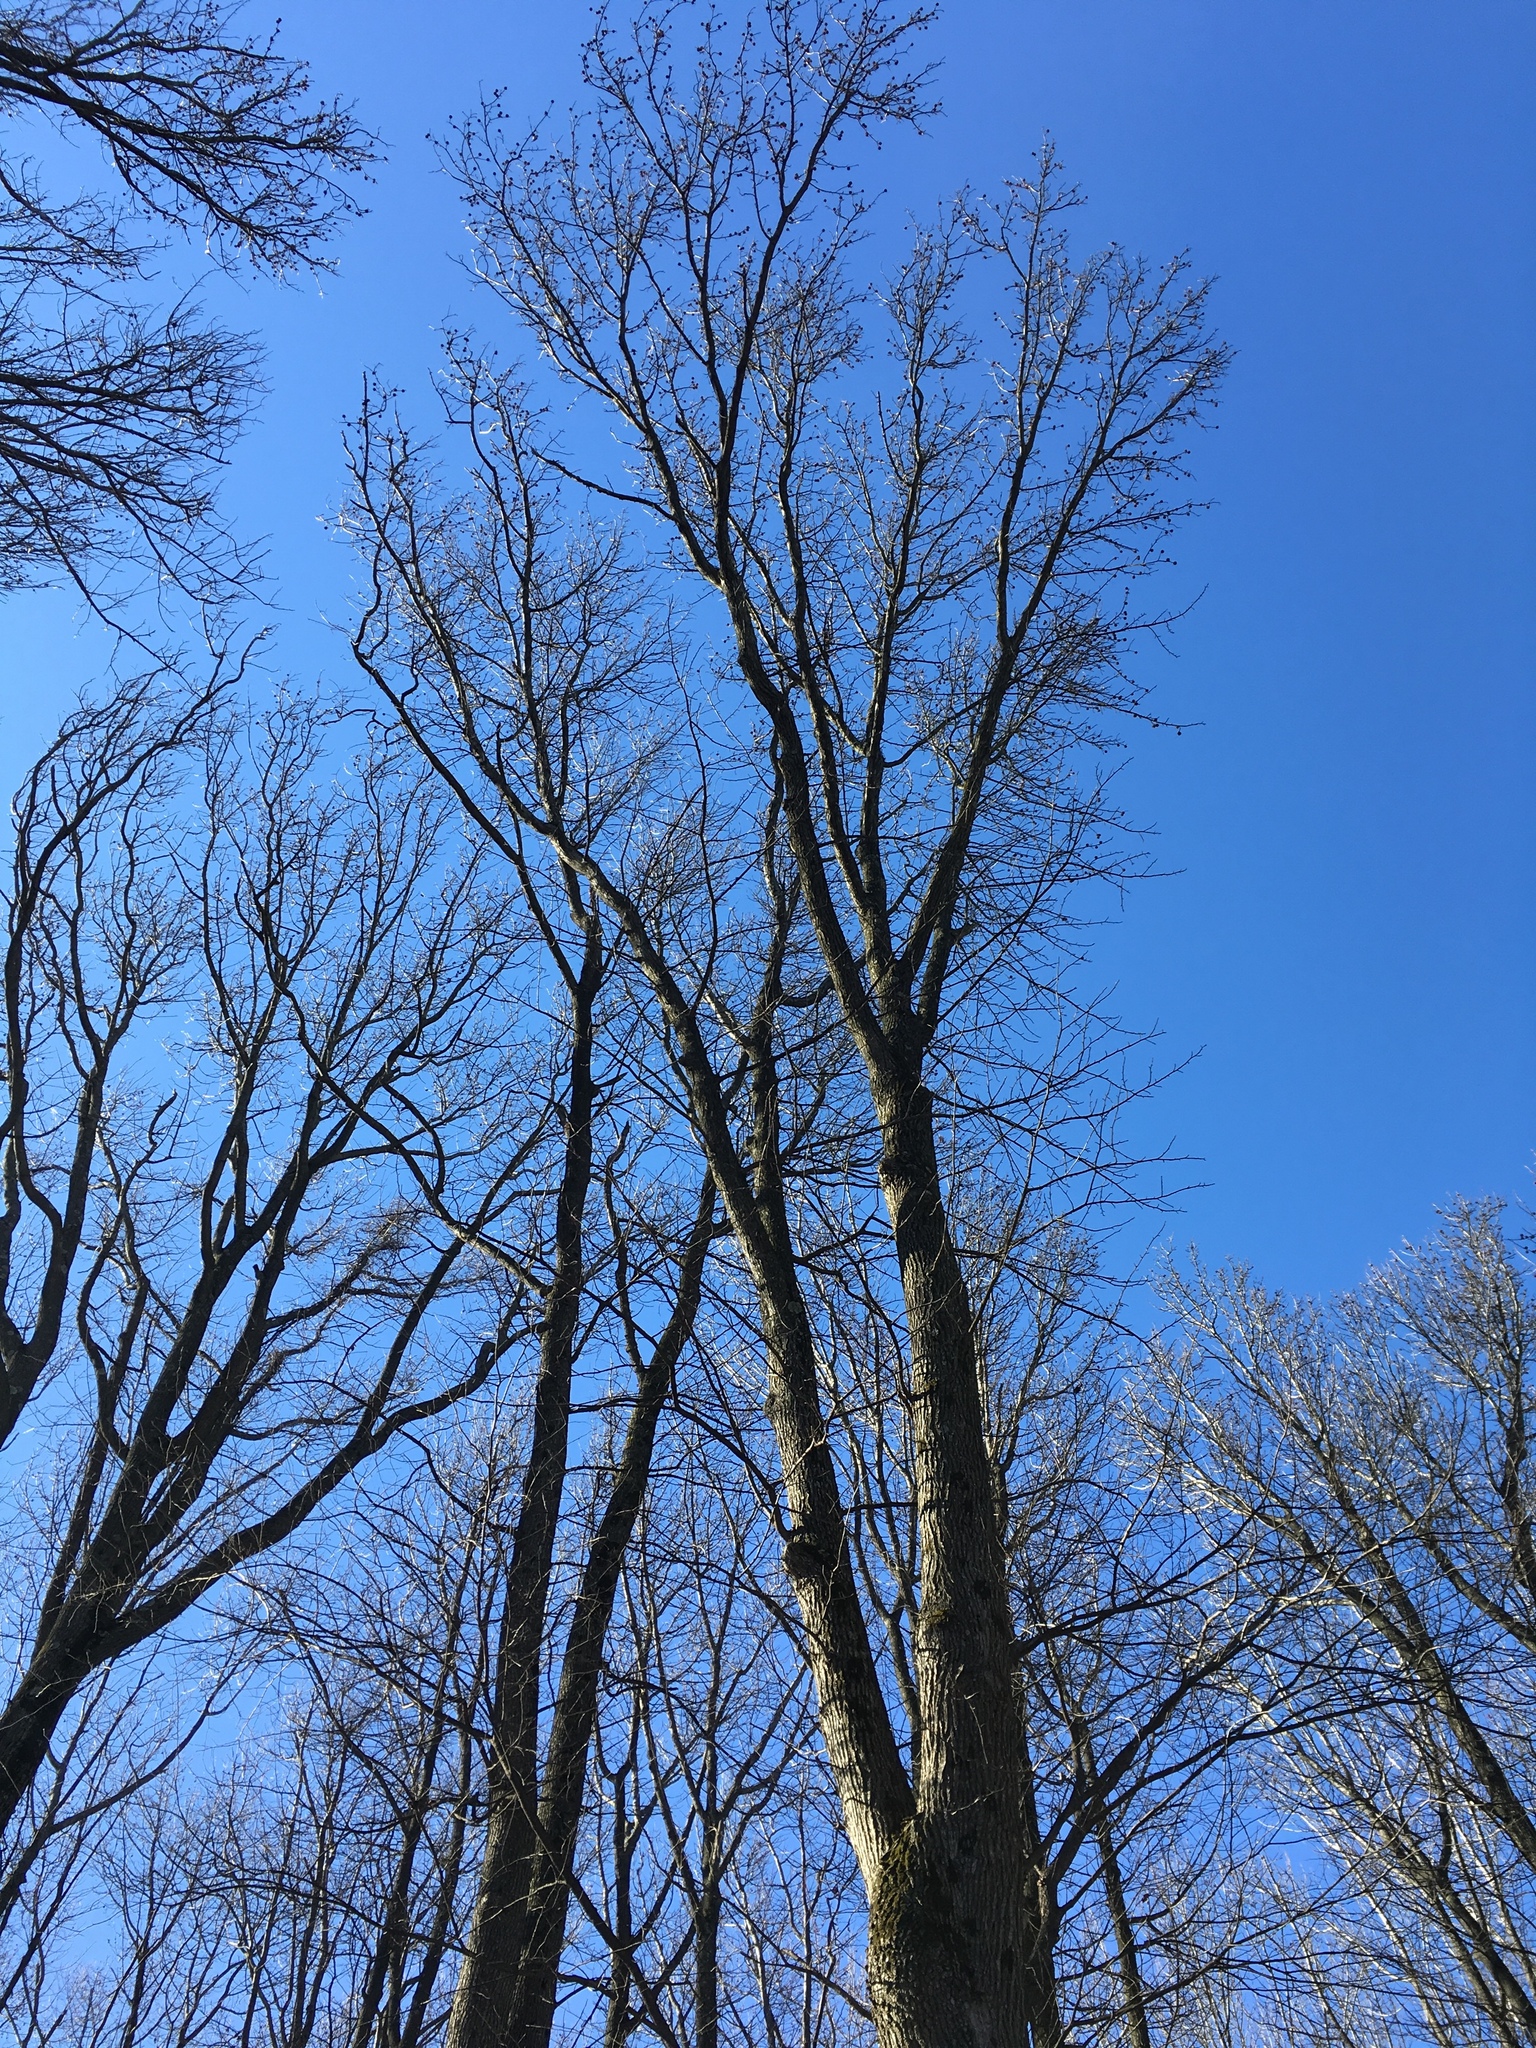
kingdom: Plantae
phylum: Tracheophyta
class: Magnoliopsida
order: Saxifragales
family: Altingiaceae
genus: Liquidambar
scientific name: Liquidambar styraciflua
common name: Sweet gum
